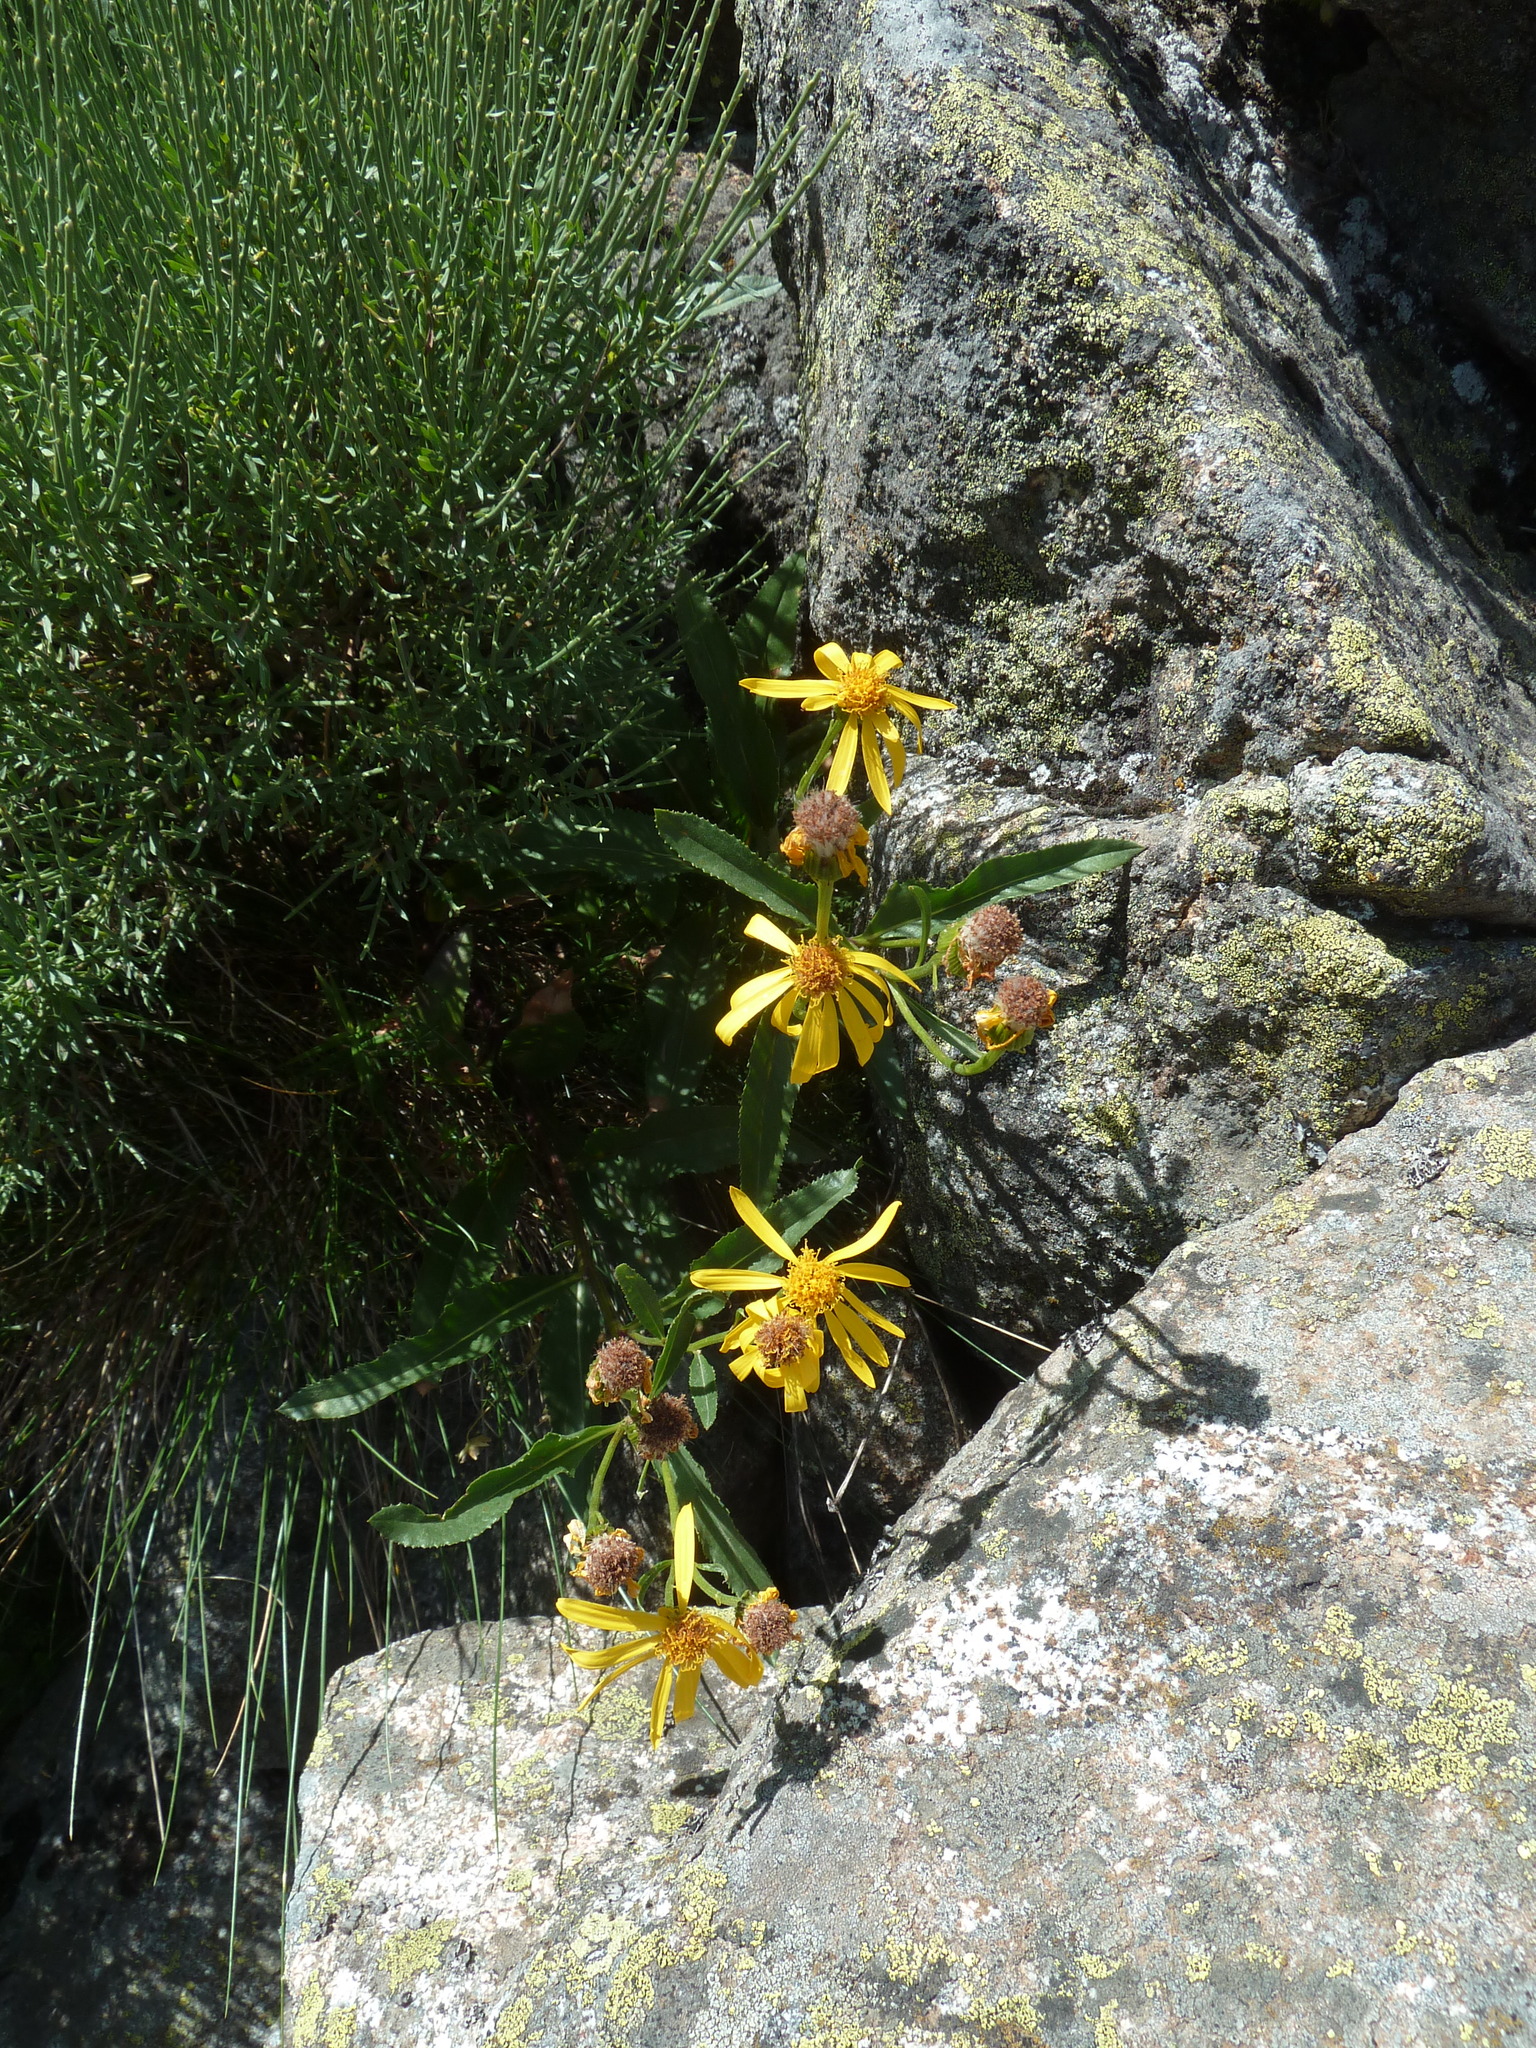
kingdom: Plantae
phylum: Tracheophyta
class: Magnoliopsida
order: Asterales
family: Asteraceae
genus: Senecio
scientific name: Senecio pyrenaicus
